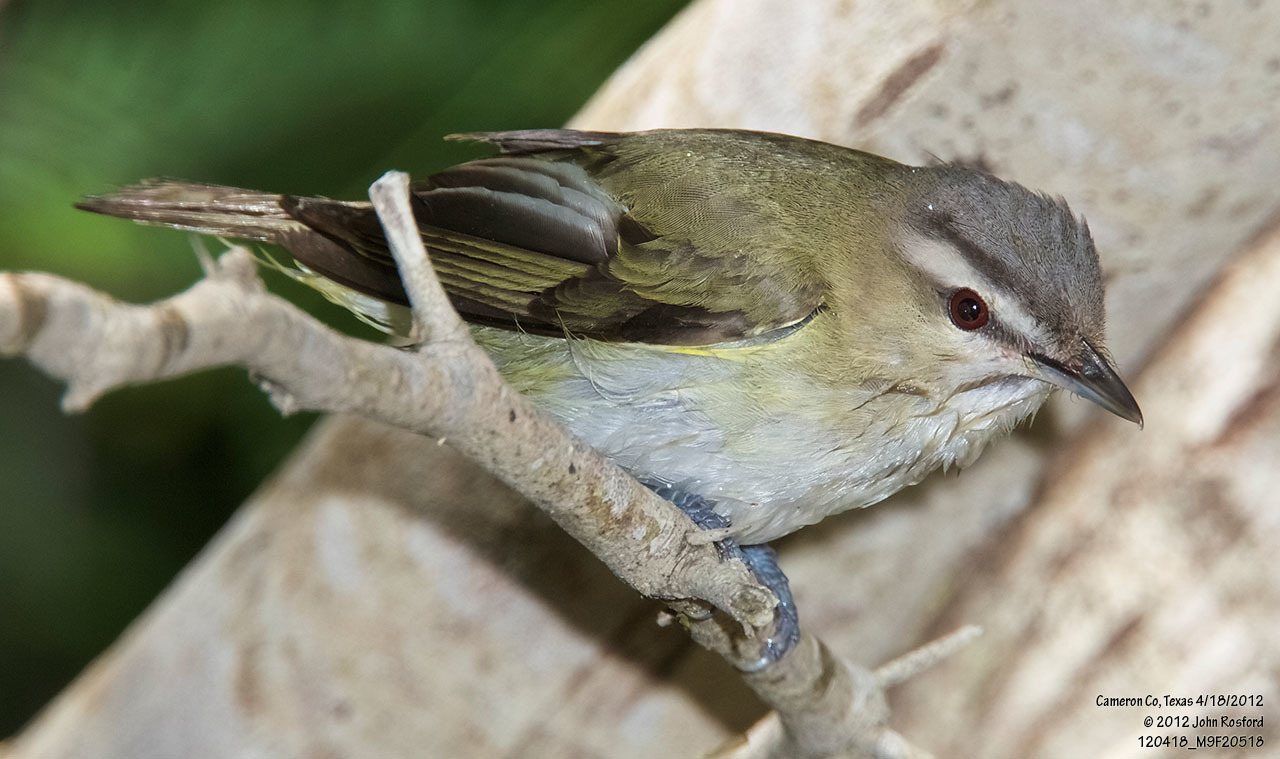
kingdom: Animalia
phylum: Chordata
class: Aves
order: Passeriformes
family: Vireonidae
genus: Vireo
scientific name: Vireo olivaceus
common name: Red-eyed vireo
